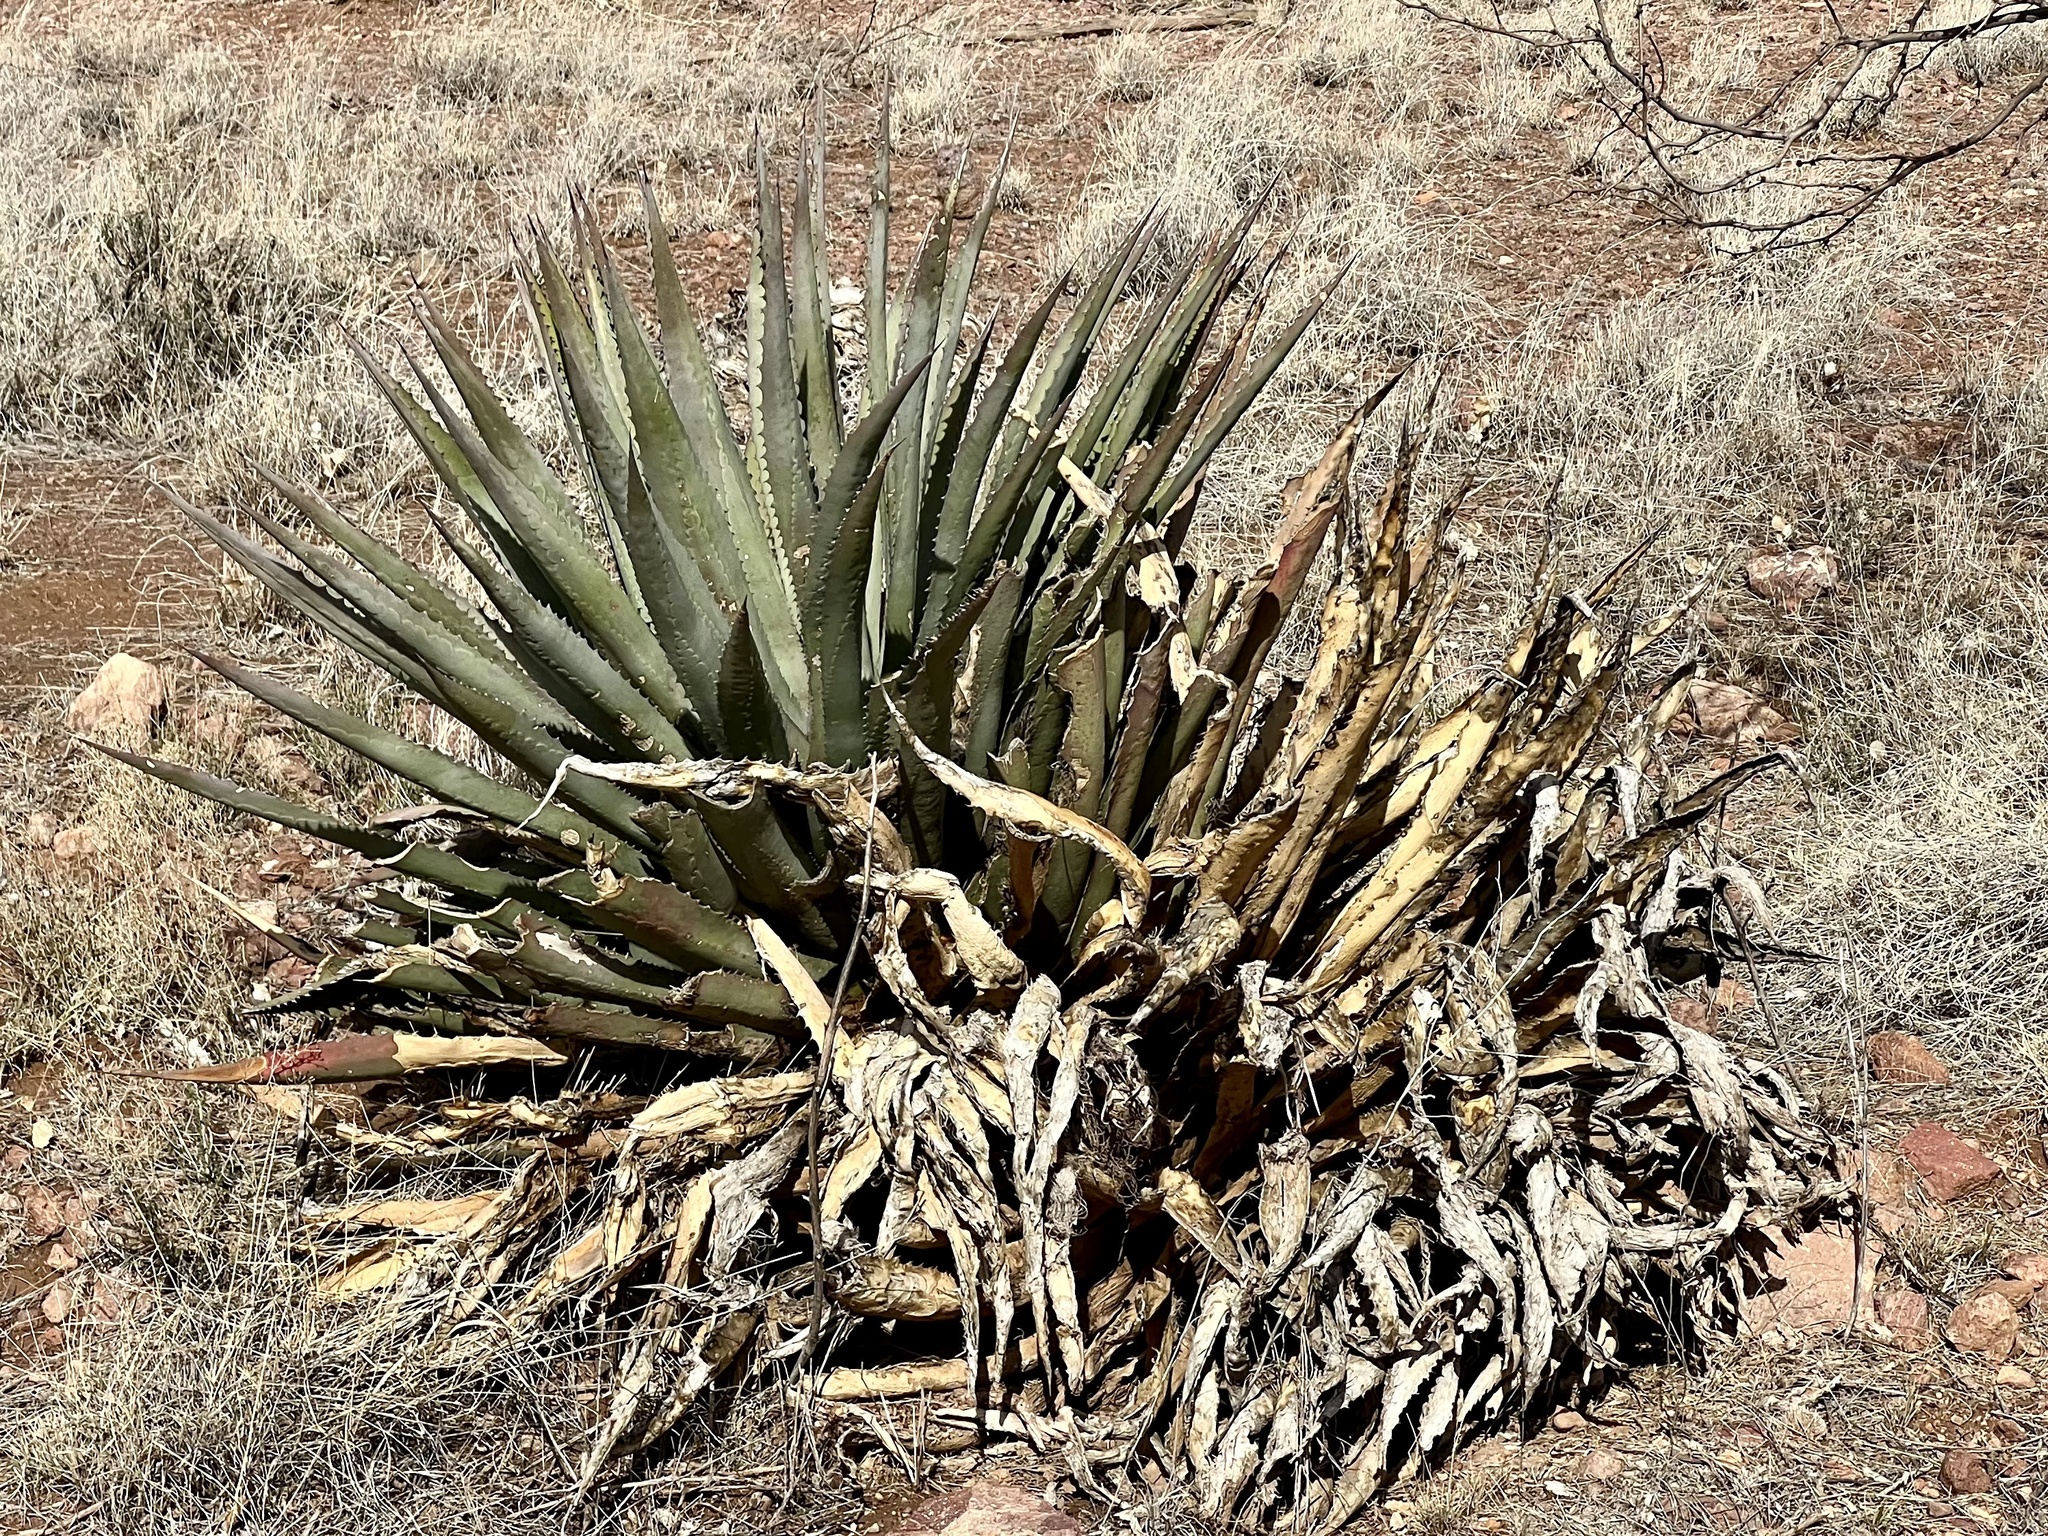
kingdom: Plantae
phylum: Tracheophyta
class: Liliopsida
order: Asparagales
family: Asparagaceae
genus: Agave
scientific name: Agave palmeri
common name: Palmer agave
